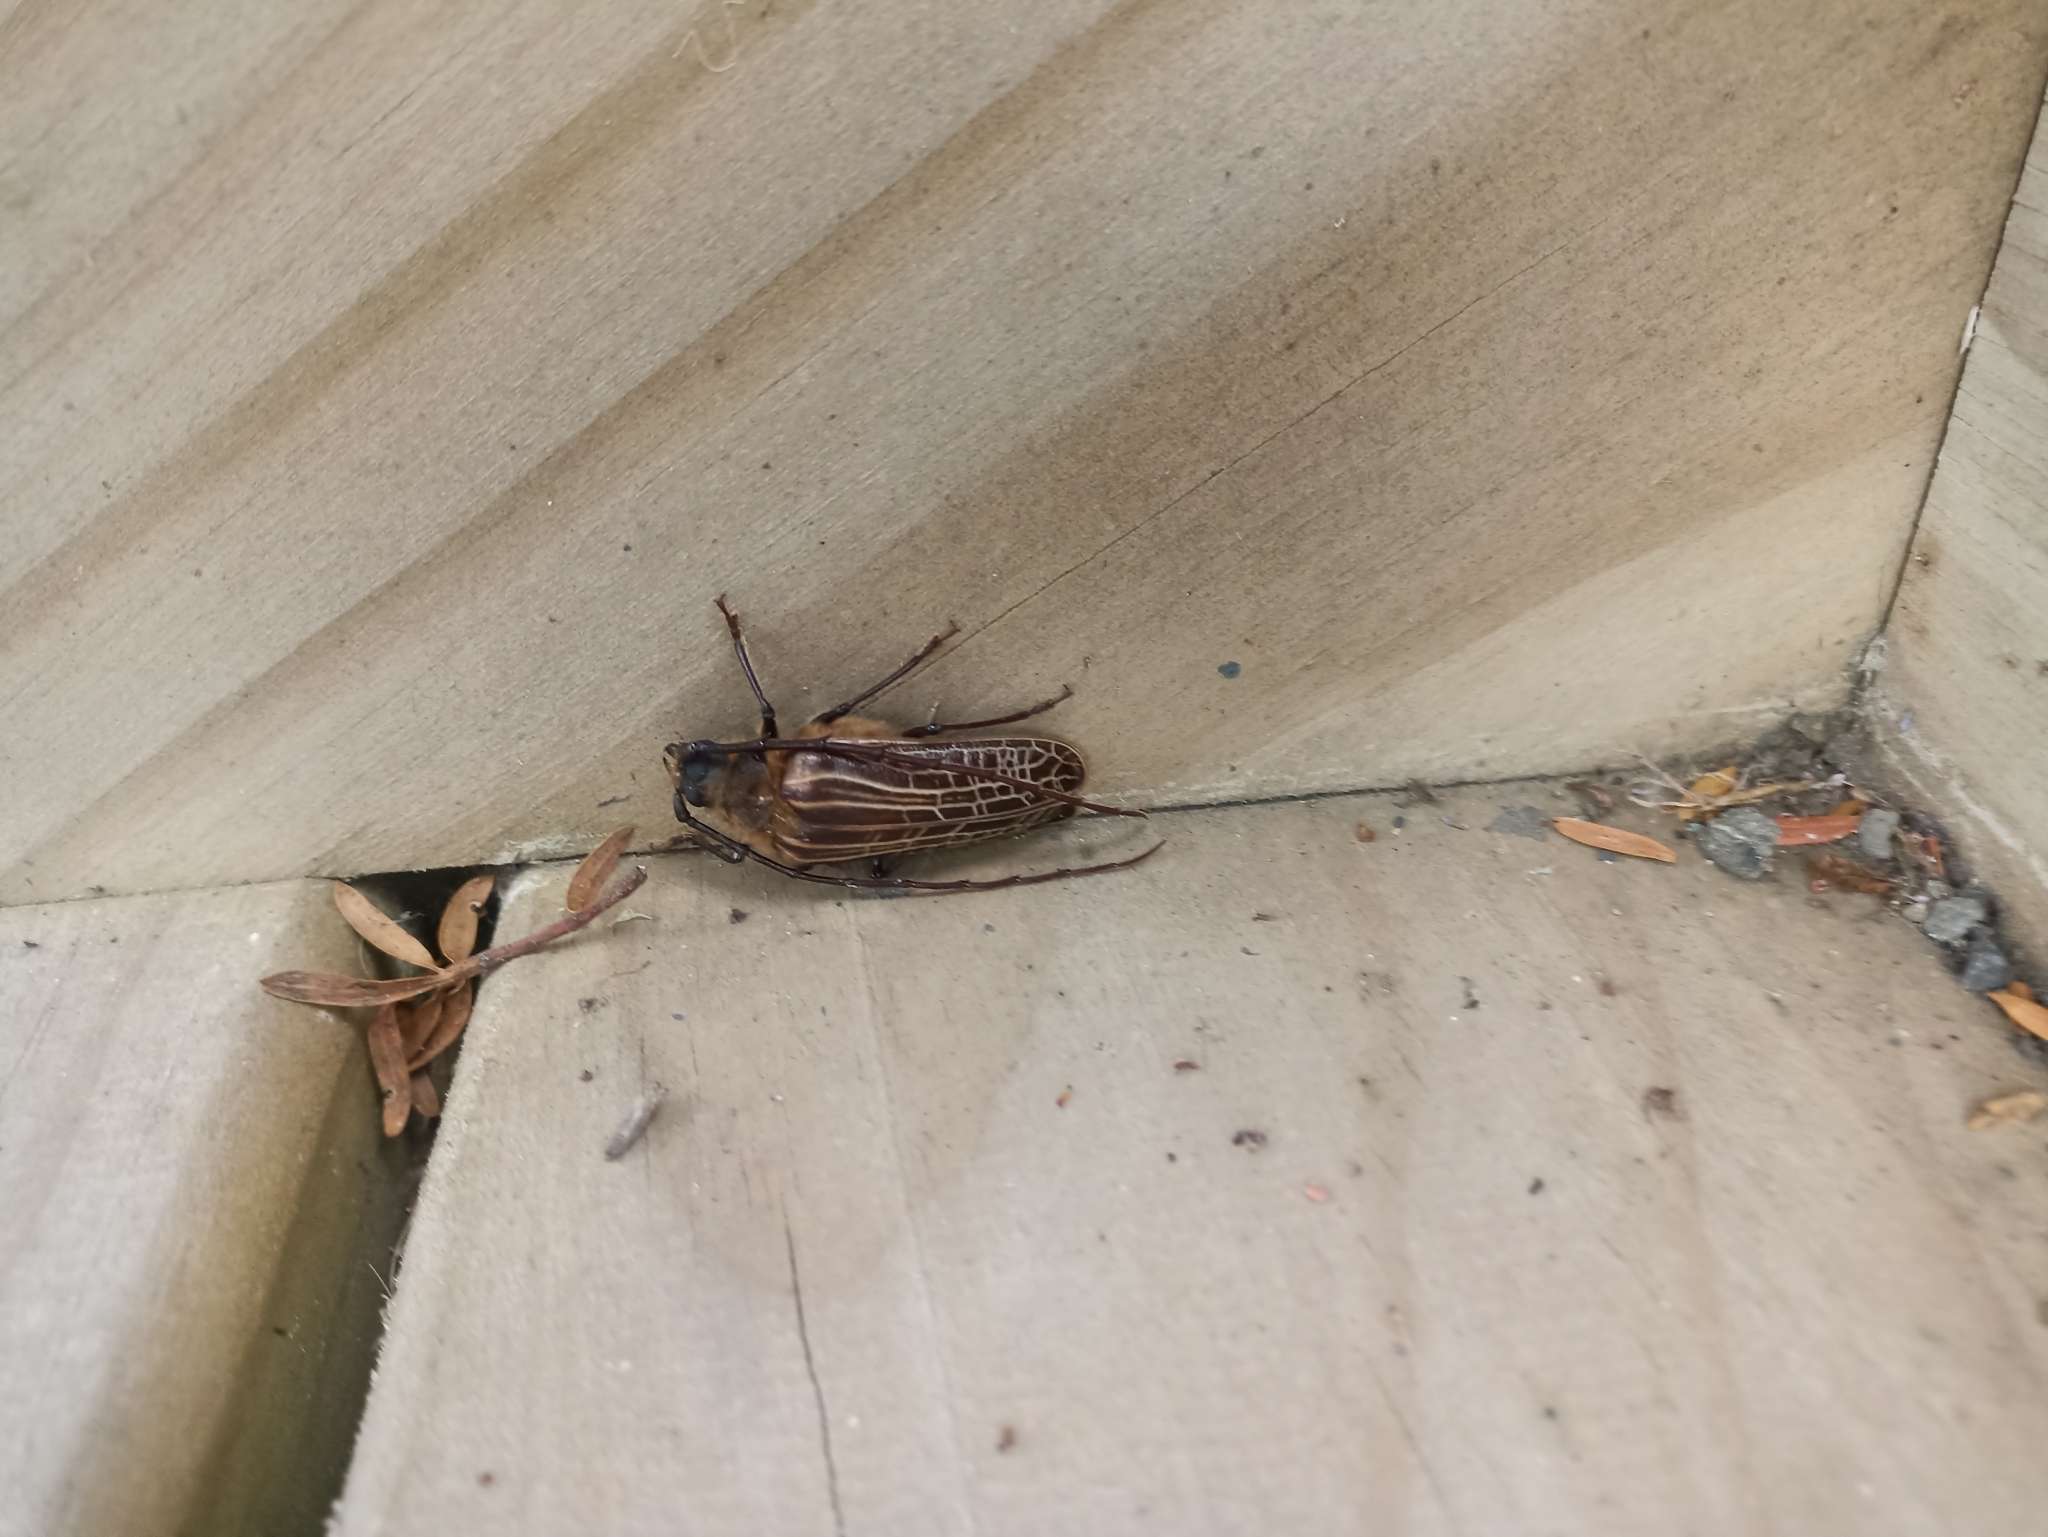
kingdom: Animalia
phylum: Arthropoda
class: Insecta
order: Coleoptera
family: Cerambycidae
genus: Prionoplus
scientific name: Prionoplus reticularis
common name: Huhu beetle
